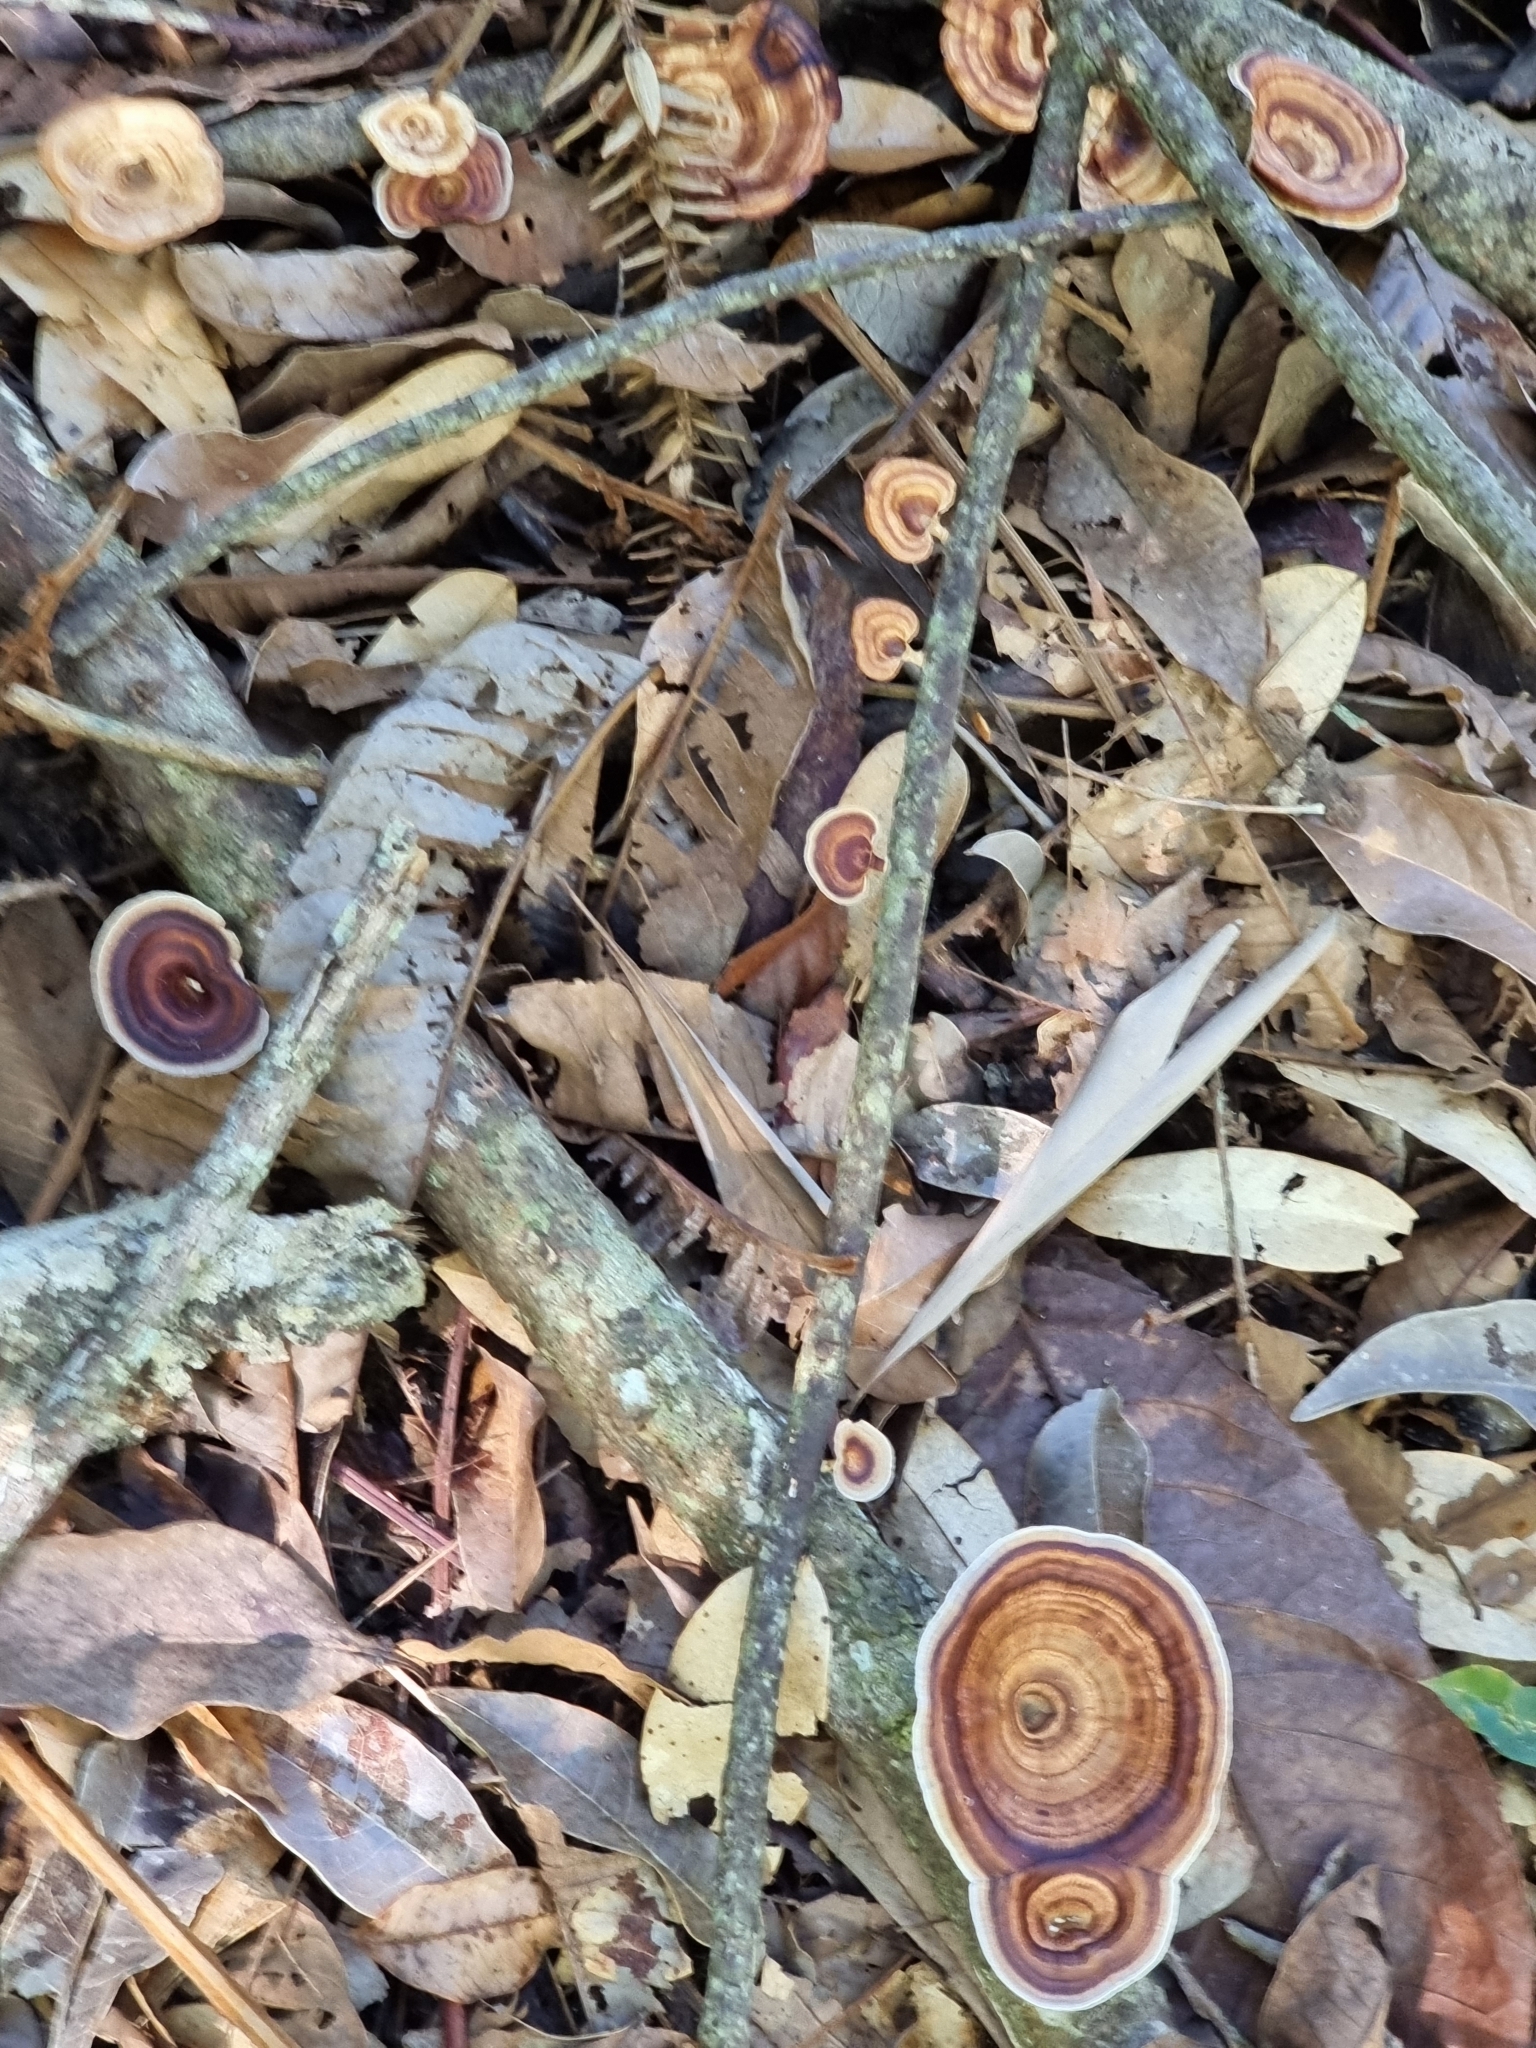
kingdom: Fungi
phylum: Basidiomycota
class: Agaricomycetes
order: Polyporales
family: Polyporaceae
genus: Microporus
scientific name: Microporus xanthopus
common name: Yellow-stemmed micropore
